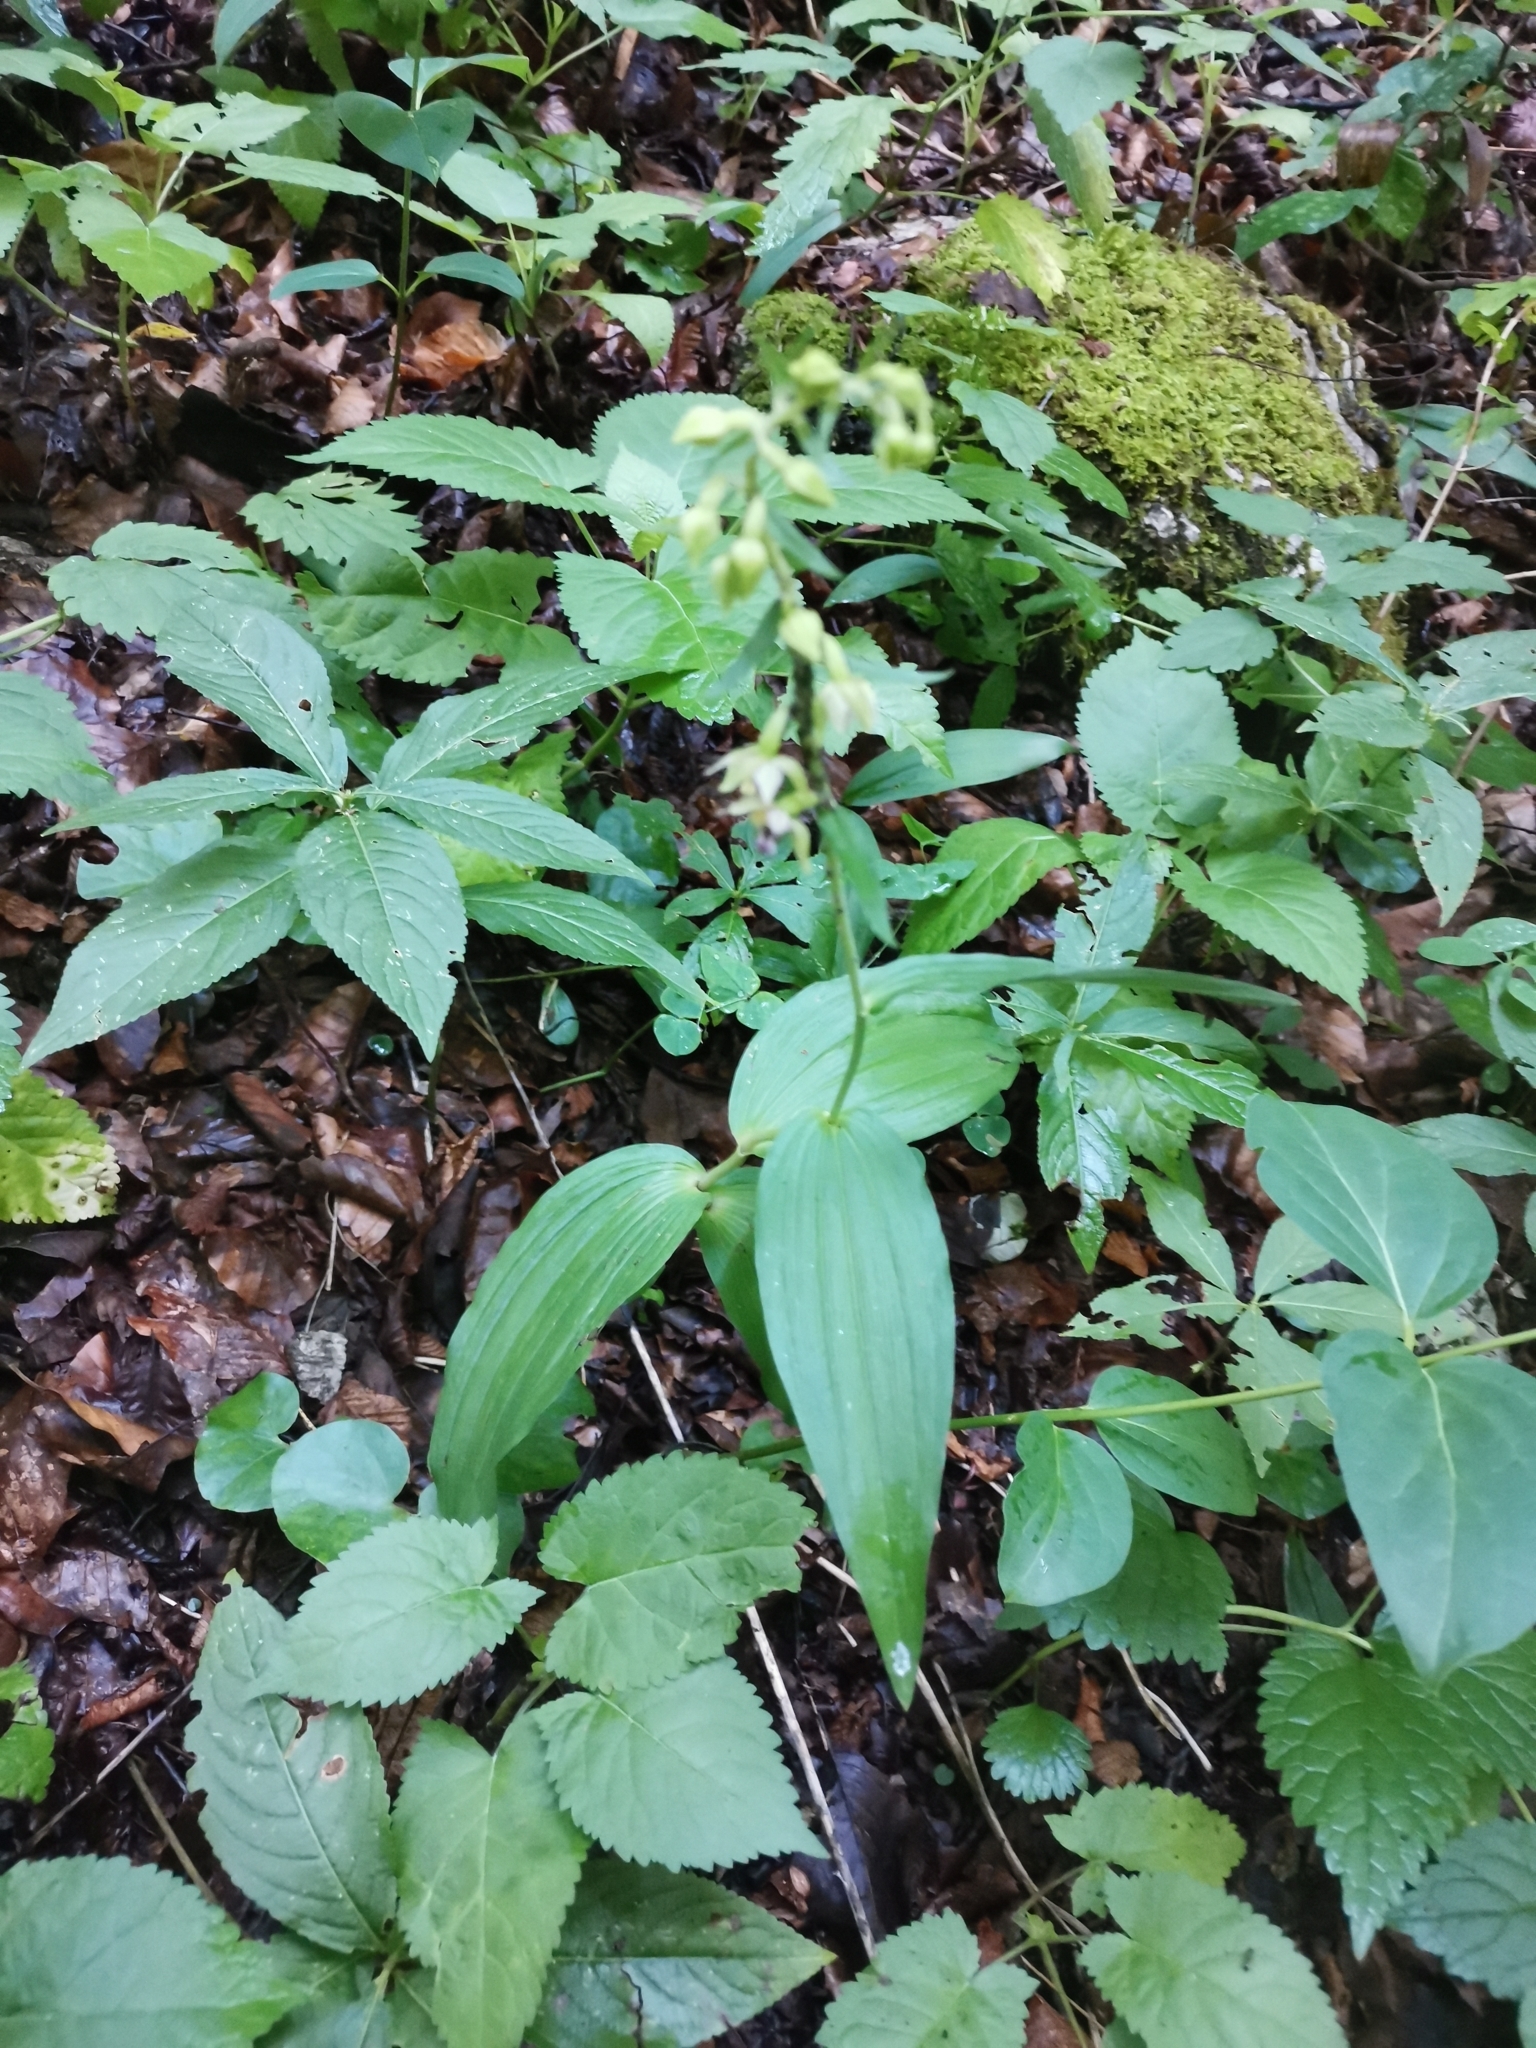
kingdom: Plantae
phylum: Tracheophyta
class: Liliopsida
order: Asparagales
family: Orchidaceae
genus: Epipactis
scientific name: Epipactis muelleri
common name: Mueller's epipactis
